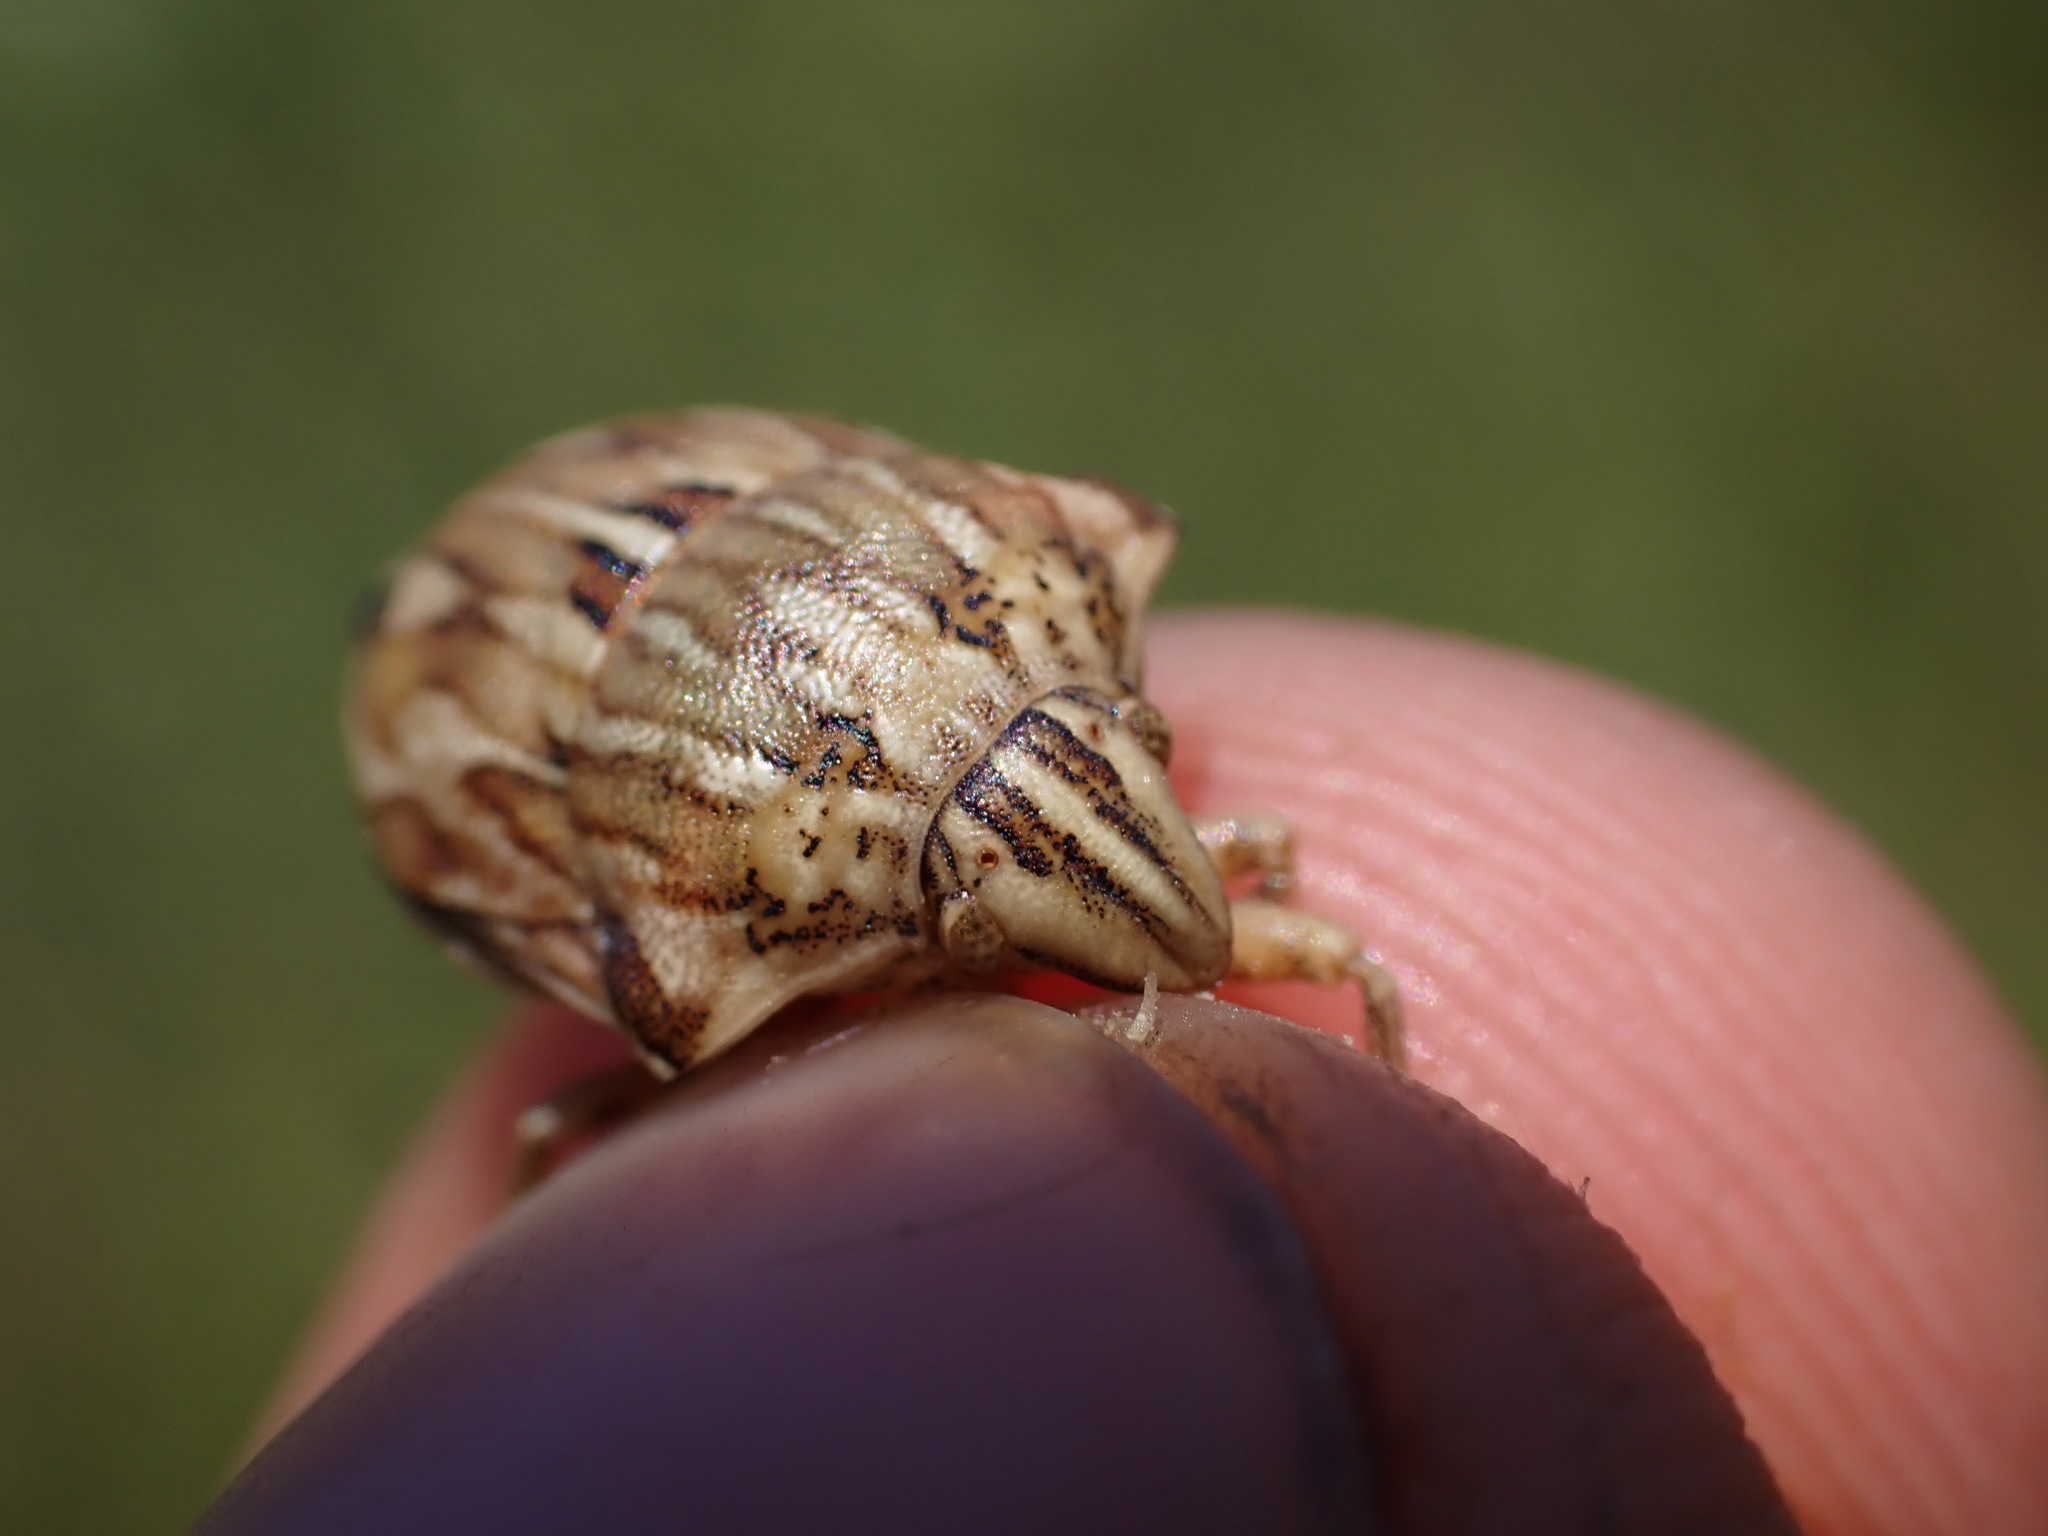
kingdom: Animalia
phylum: Arthropoda
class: Insecta
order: Hemiptera
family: Scutelleridae
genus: Odontotarsus
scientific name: Odontotarsus robustus
